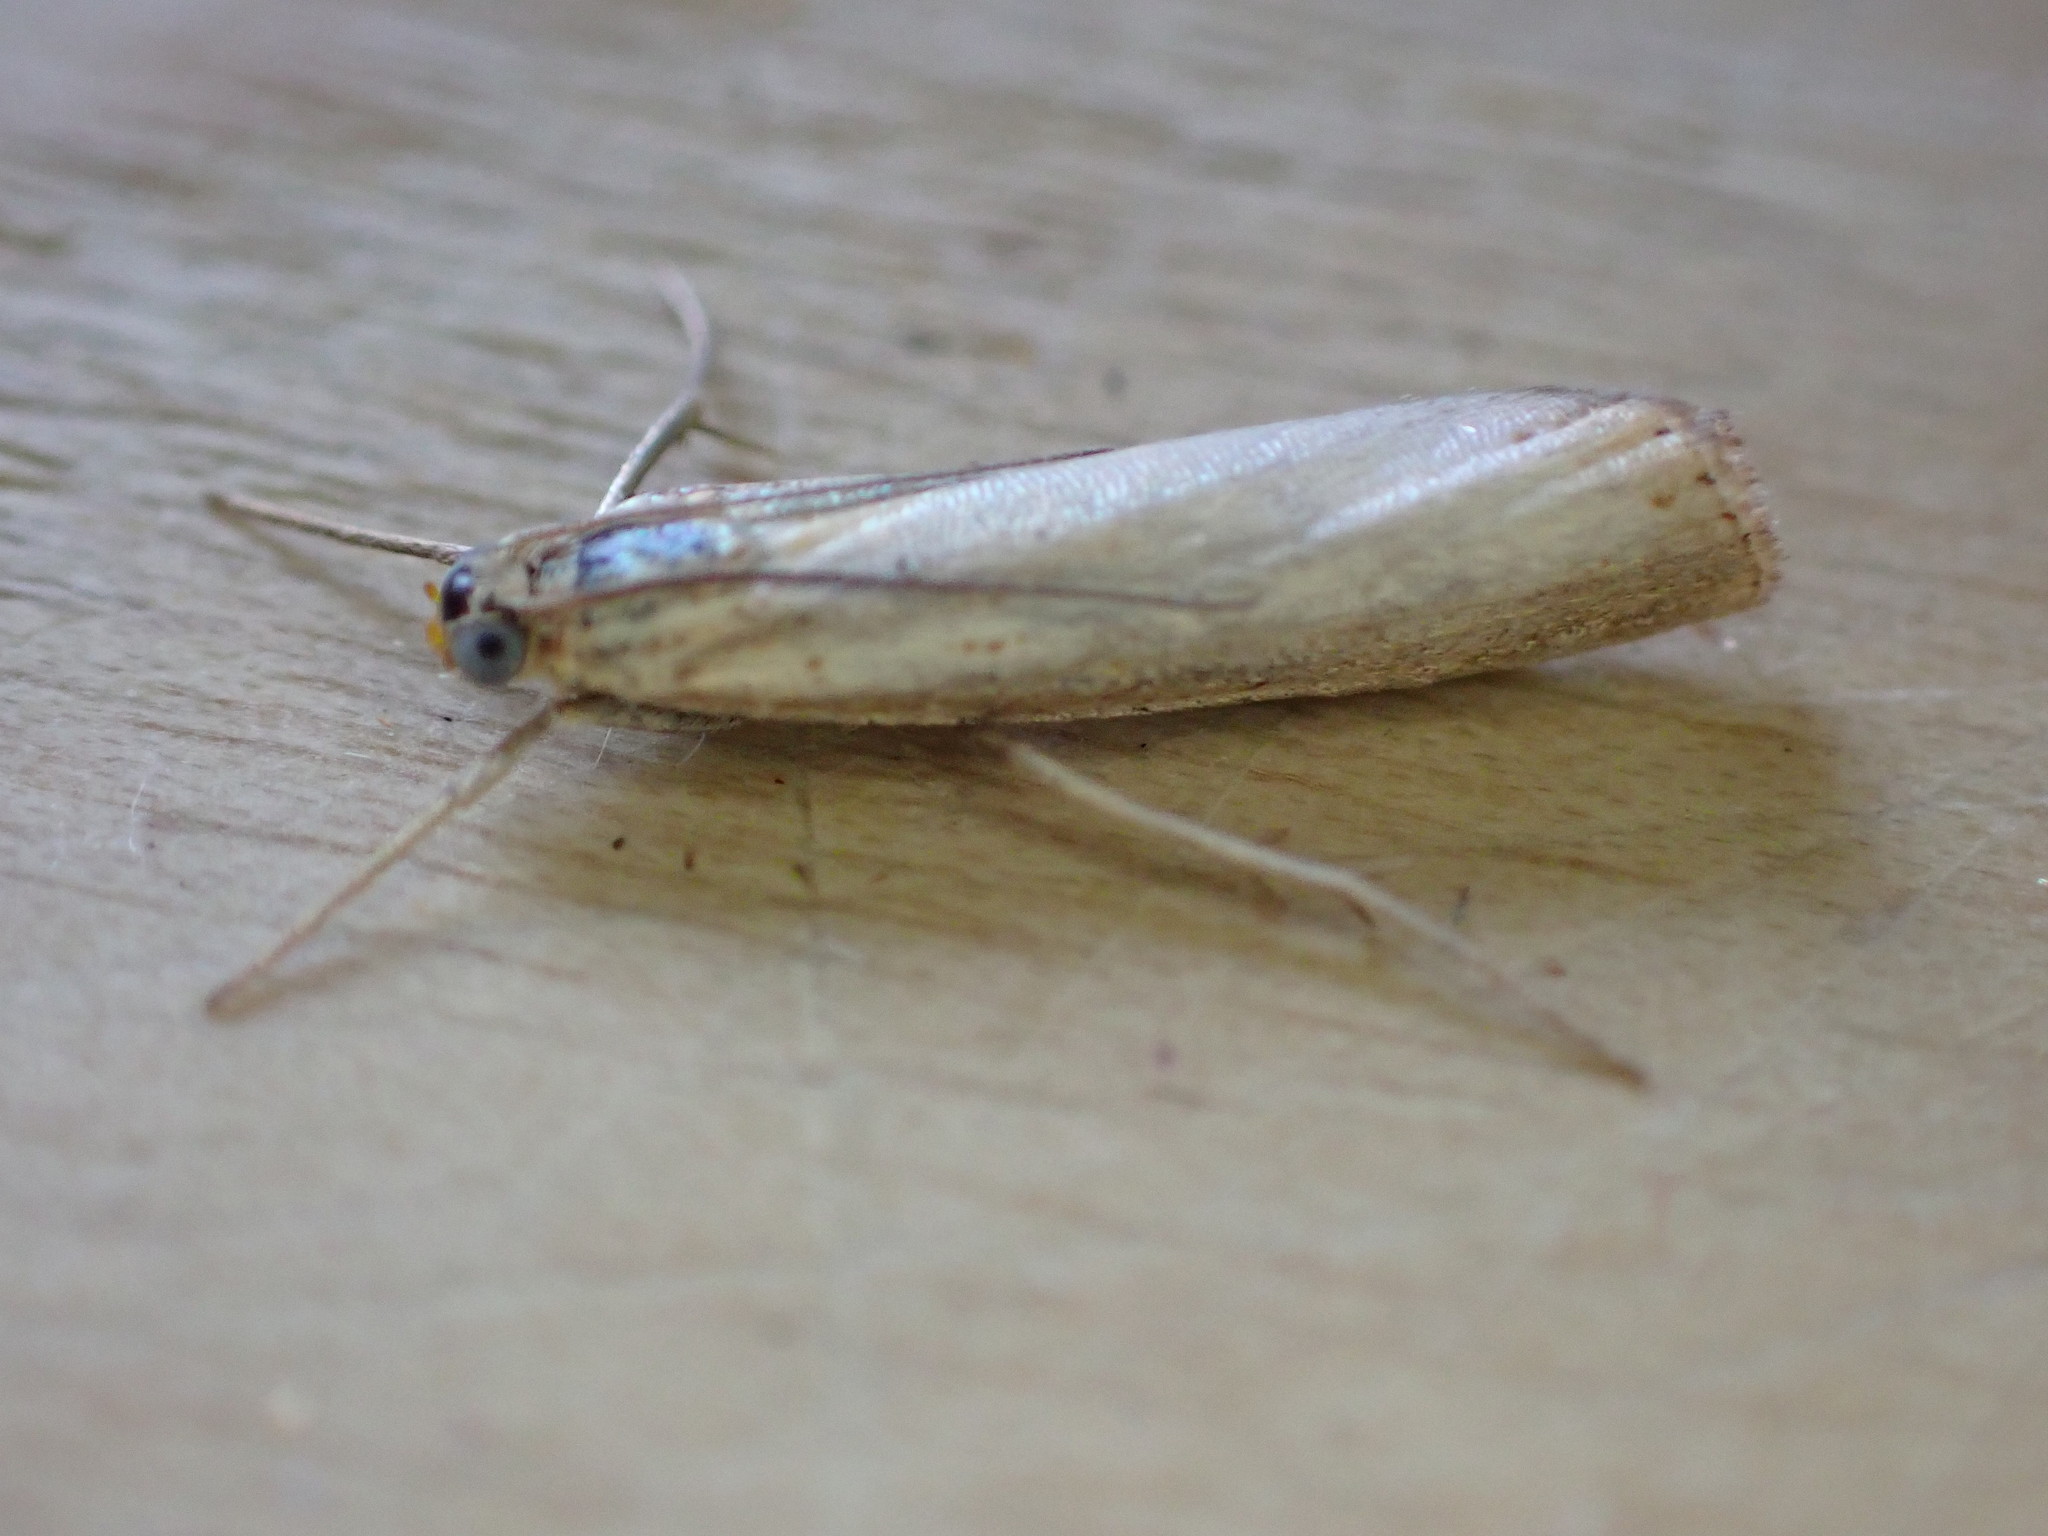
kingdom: Animalia
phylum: Arthropoda
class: Insecta
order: Lepidoptera
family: Crambidae
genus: Agriphila
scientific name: Agriphila straminella
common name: Straw grass-veneer
